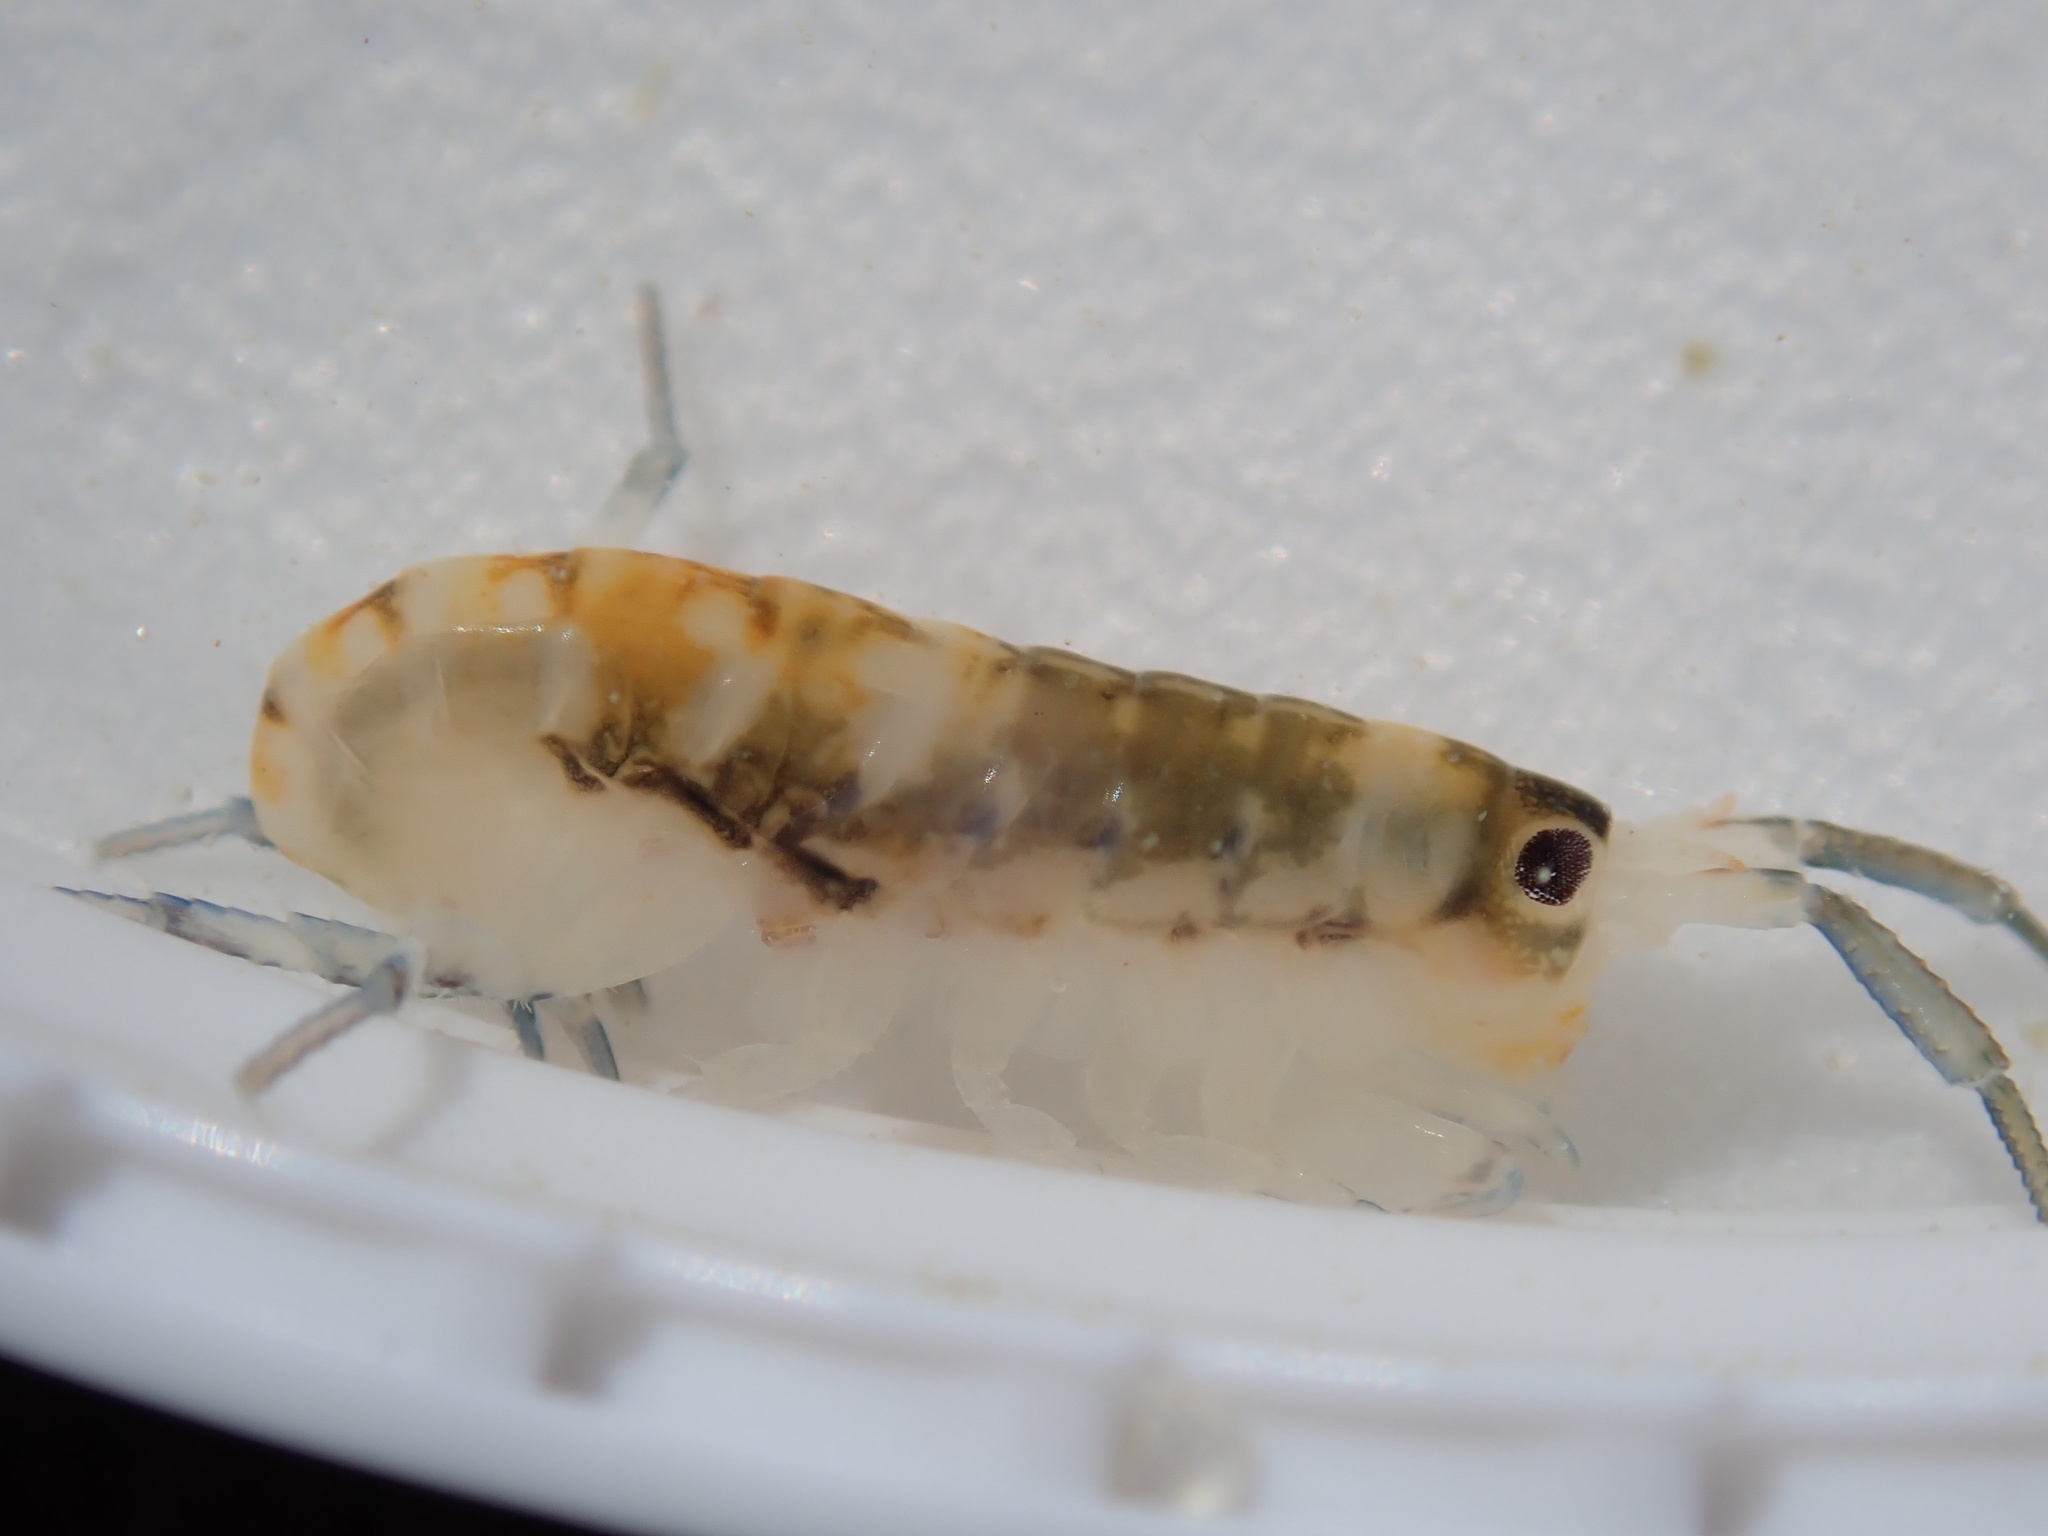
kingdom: Animalia
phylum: Arthropoda
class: Malacostraca
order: Amphipoda
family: Talitridae
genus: Megalorchestia
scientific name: Megalorchestia pugettensis
